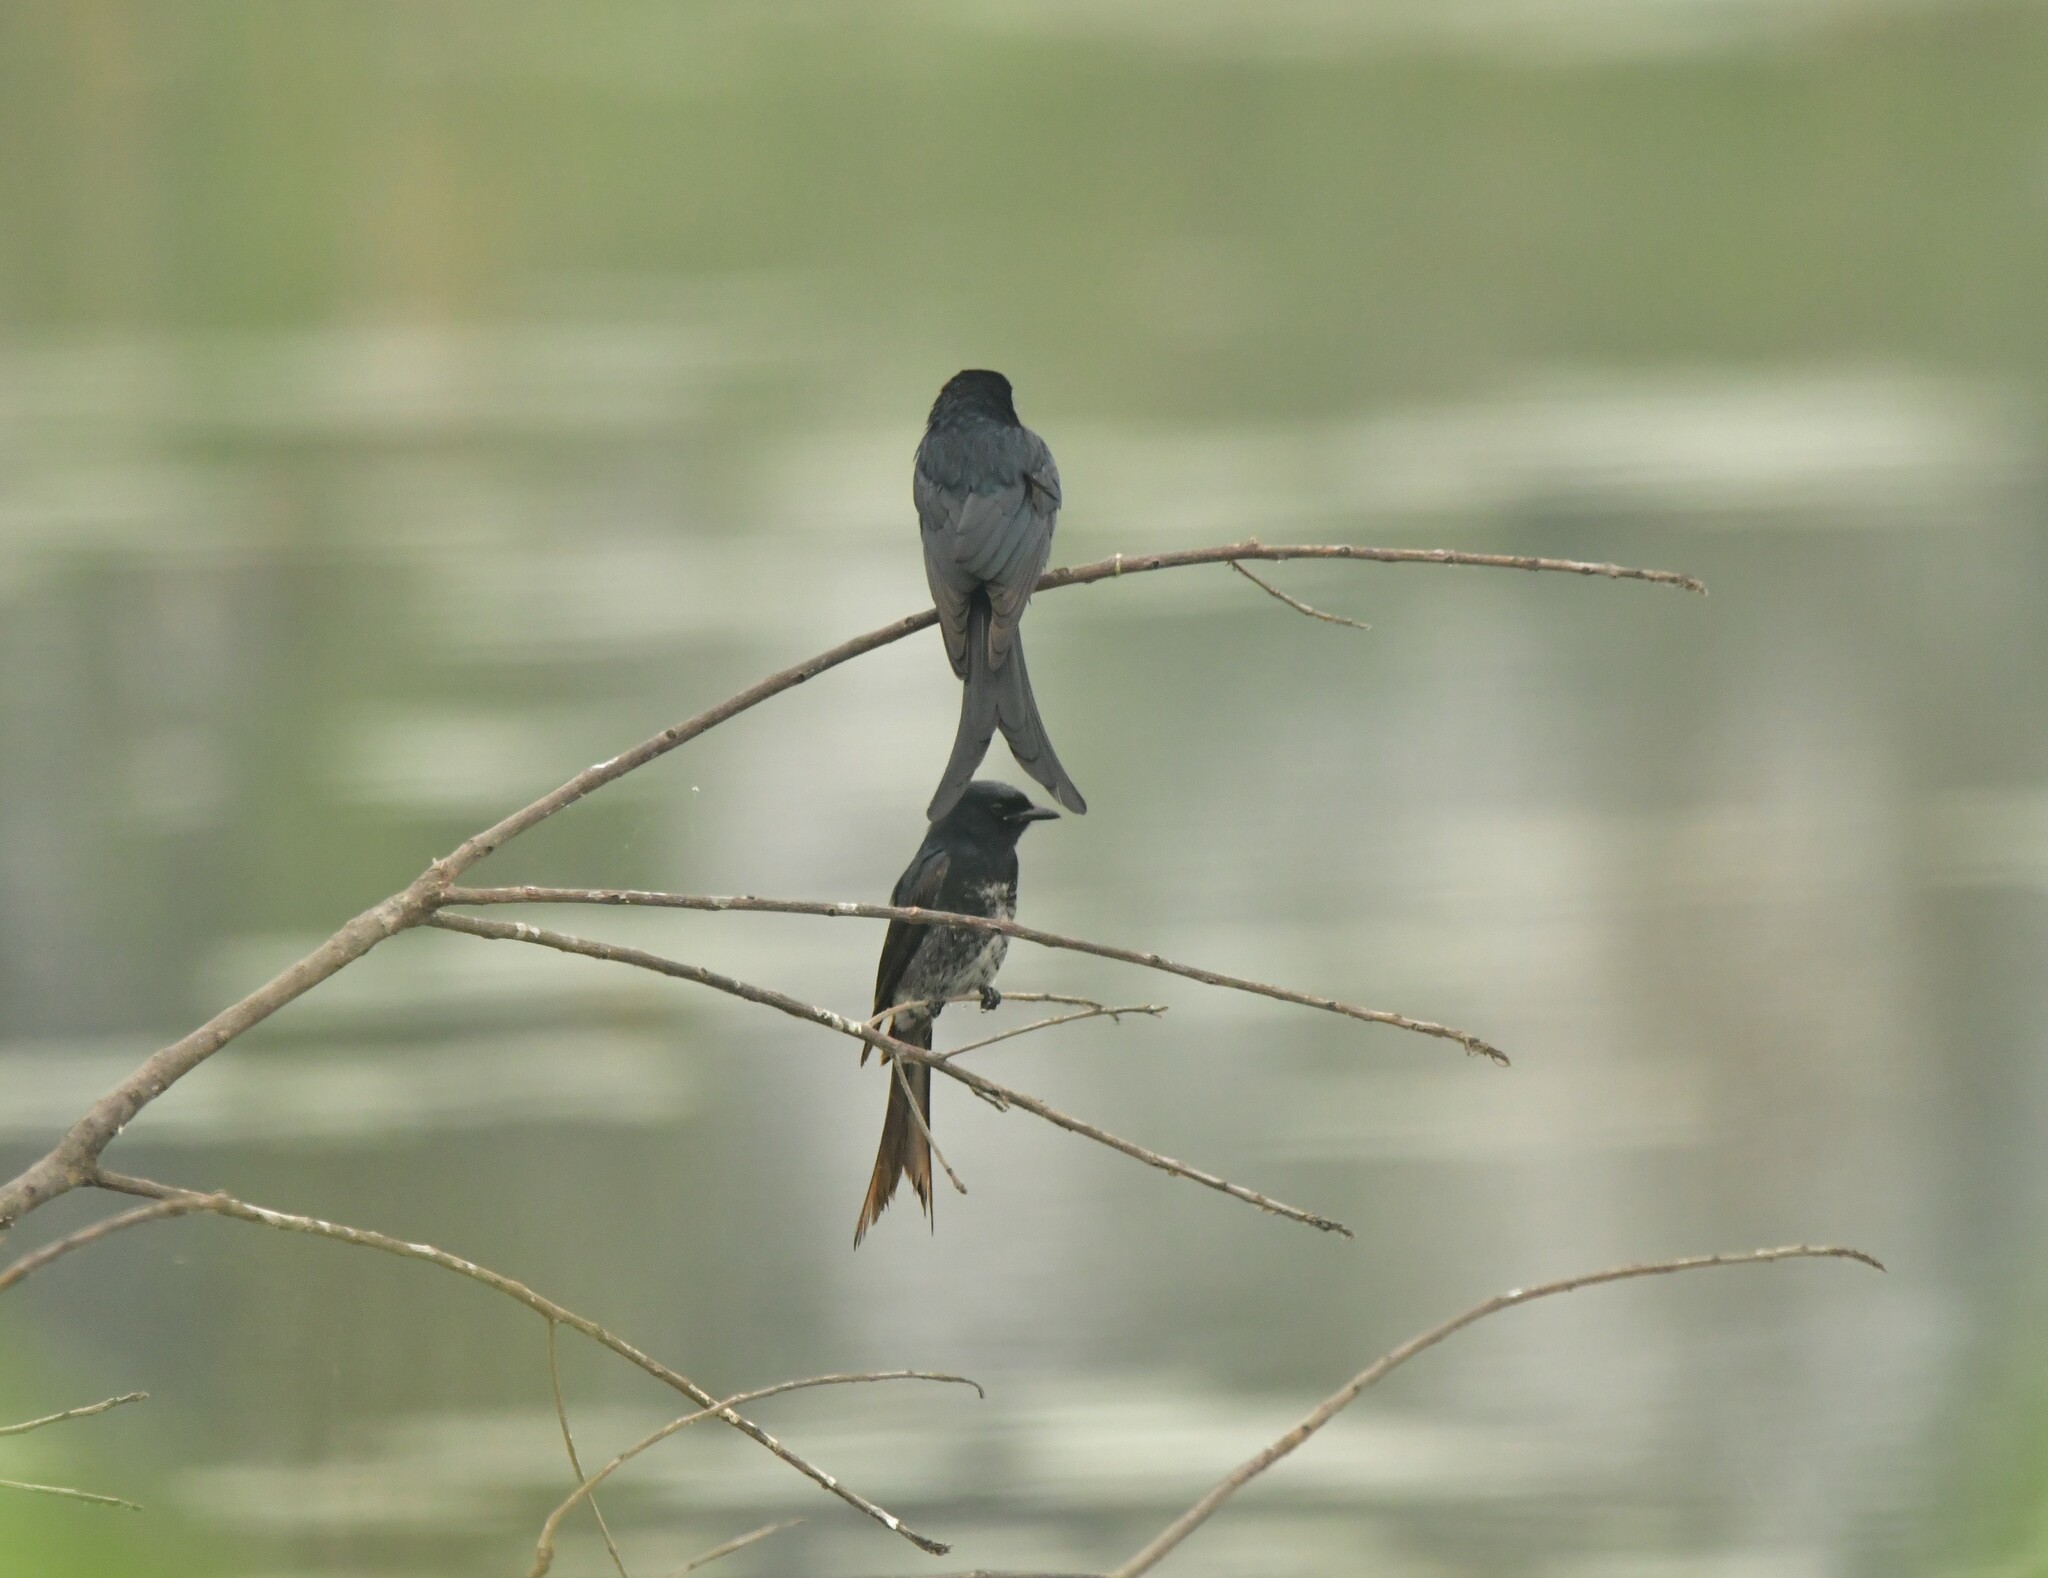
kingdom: Animalia
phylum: Chordata
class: Aves
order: Passeriformes
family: Dicruridae
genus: Dicrurus
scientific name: Dicrurus macrocercus
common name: Black drongo
